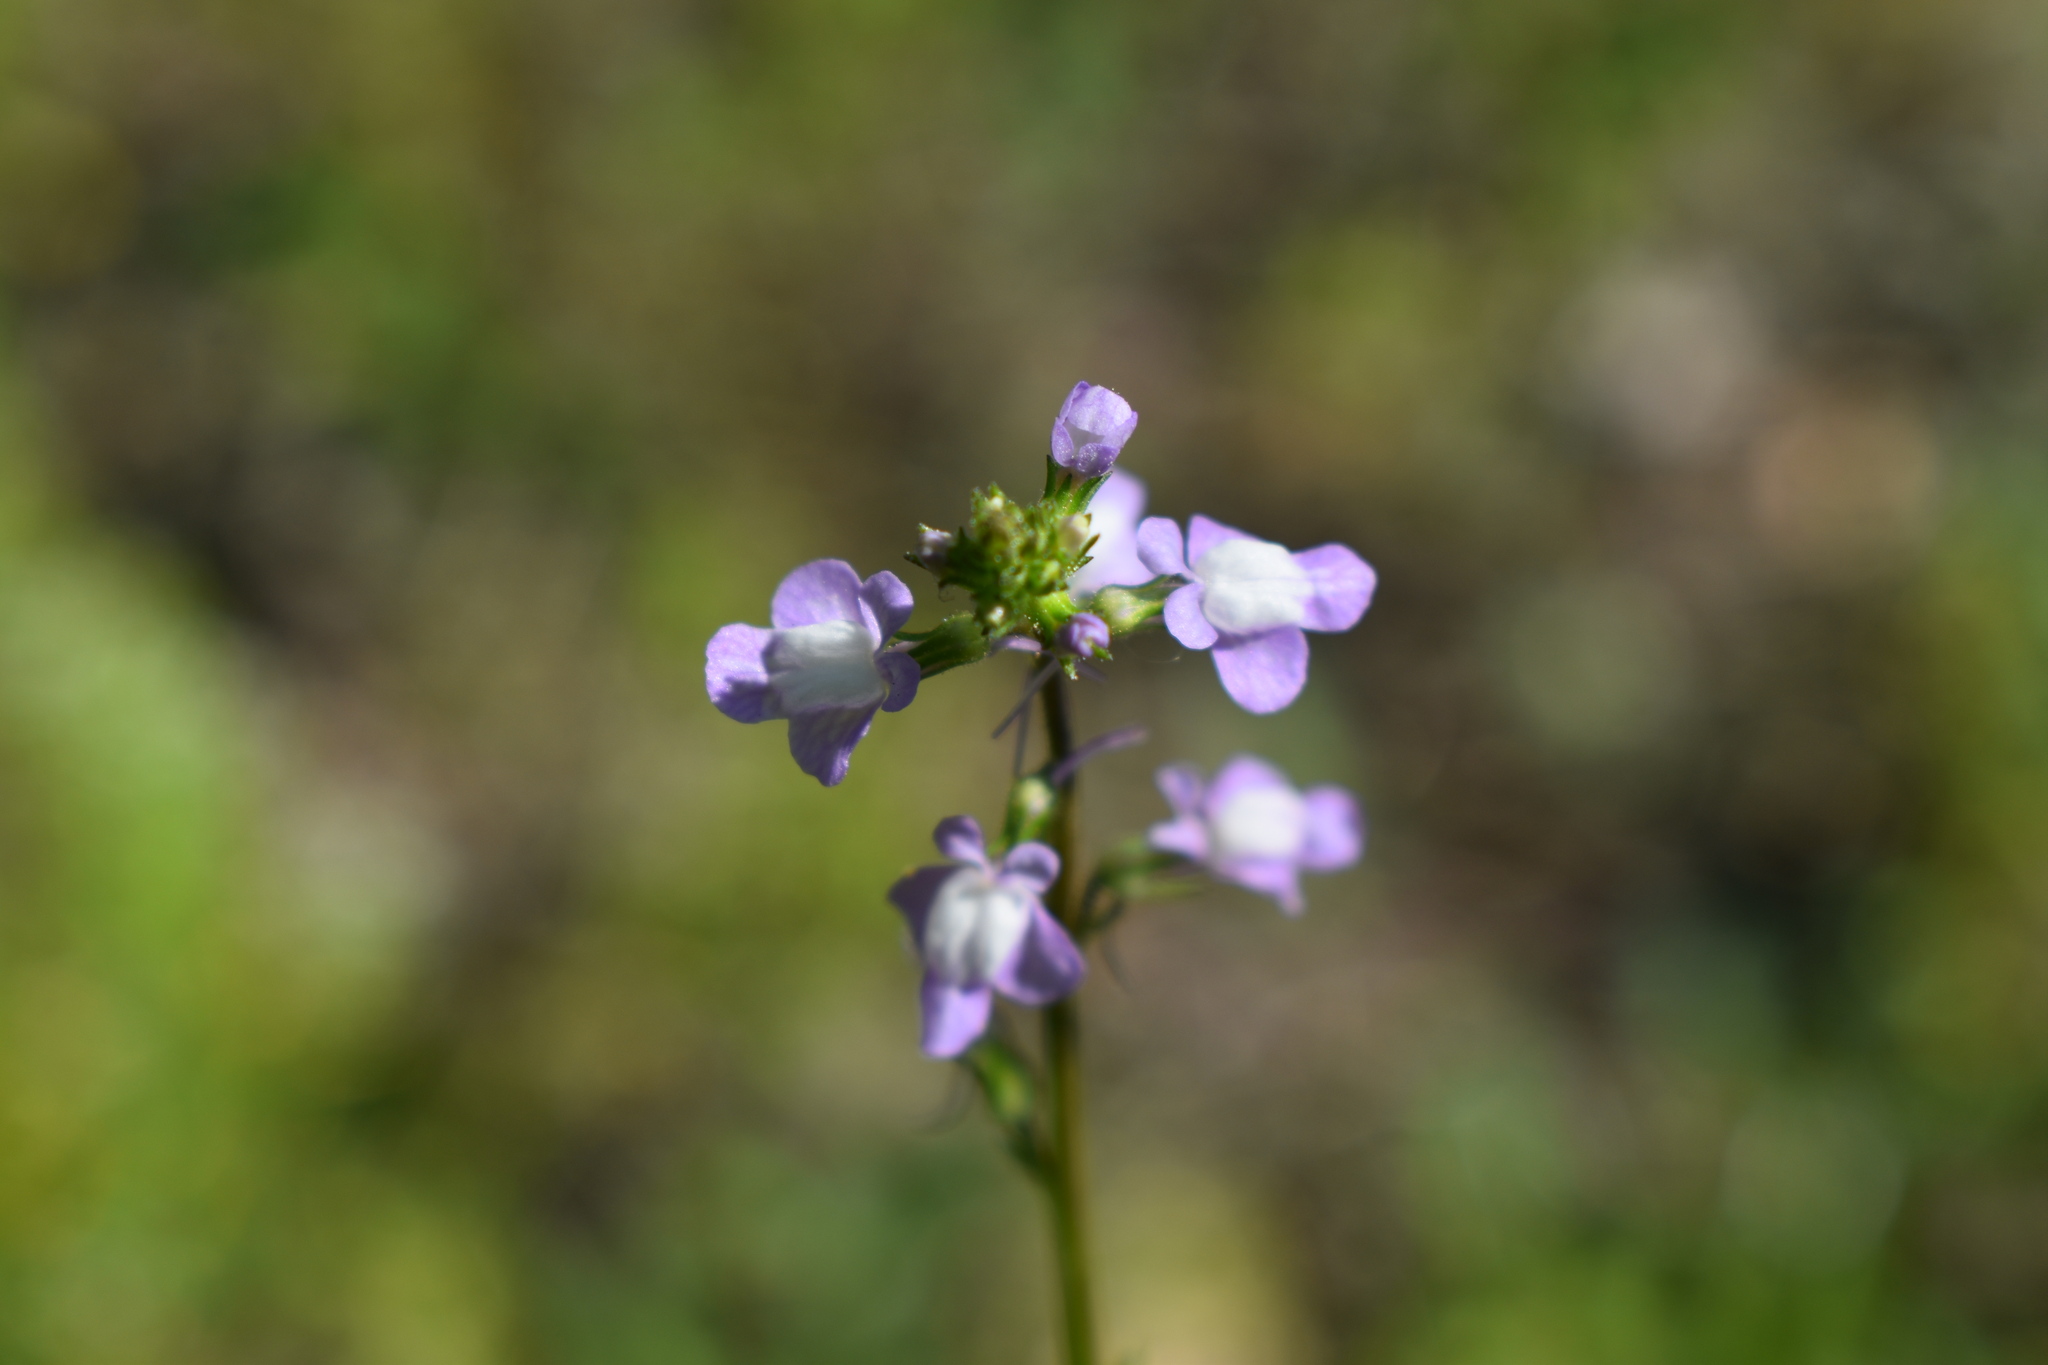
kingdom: Plantae
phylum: Tracheophyta
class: Magnoliopsida
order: Lamiales
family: Plantaginaceae
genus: Nuttallanthus
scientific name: Nuttallanthus canadensis
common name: Blue toadflax
